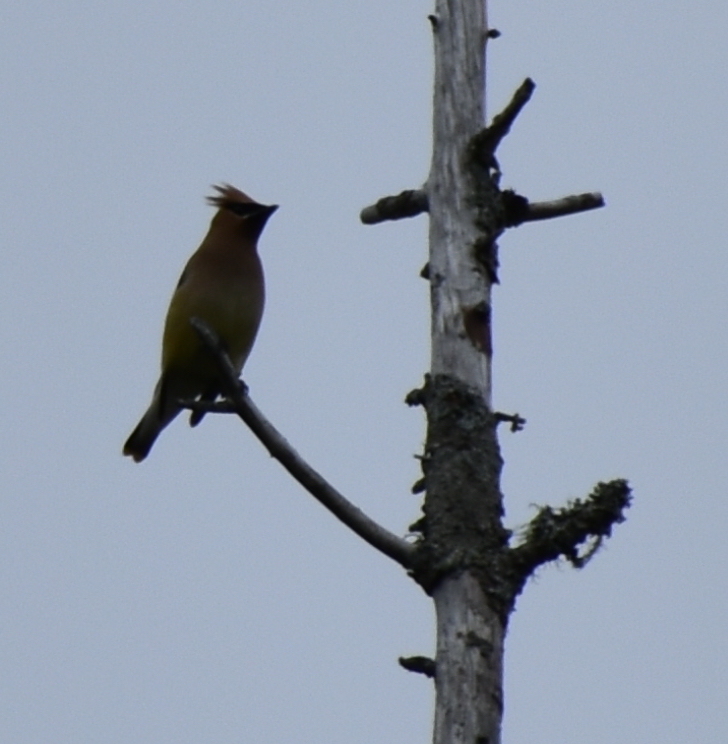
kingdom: Animalia
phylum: Chordata
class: Aves
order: Passeriformes
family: Bombycillidae
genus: Bombycilla
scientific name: Bombycilla cedrorum
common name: Cedar waxwing
